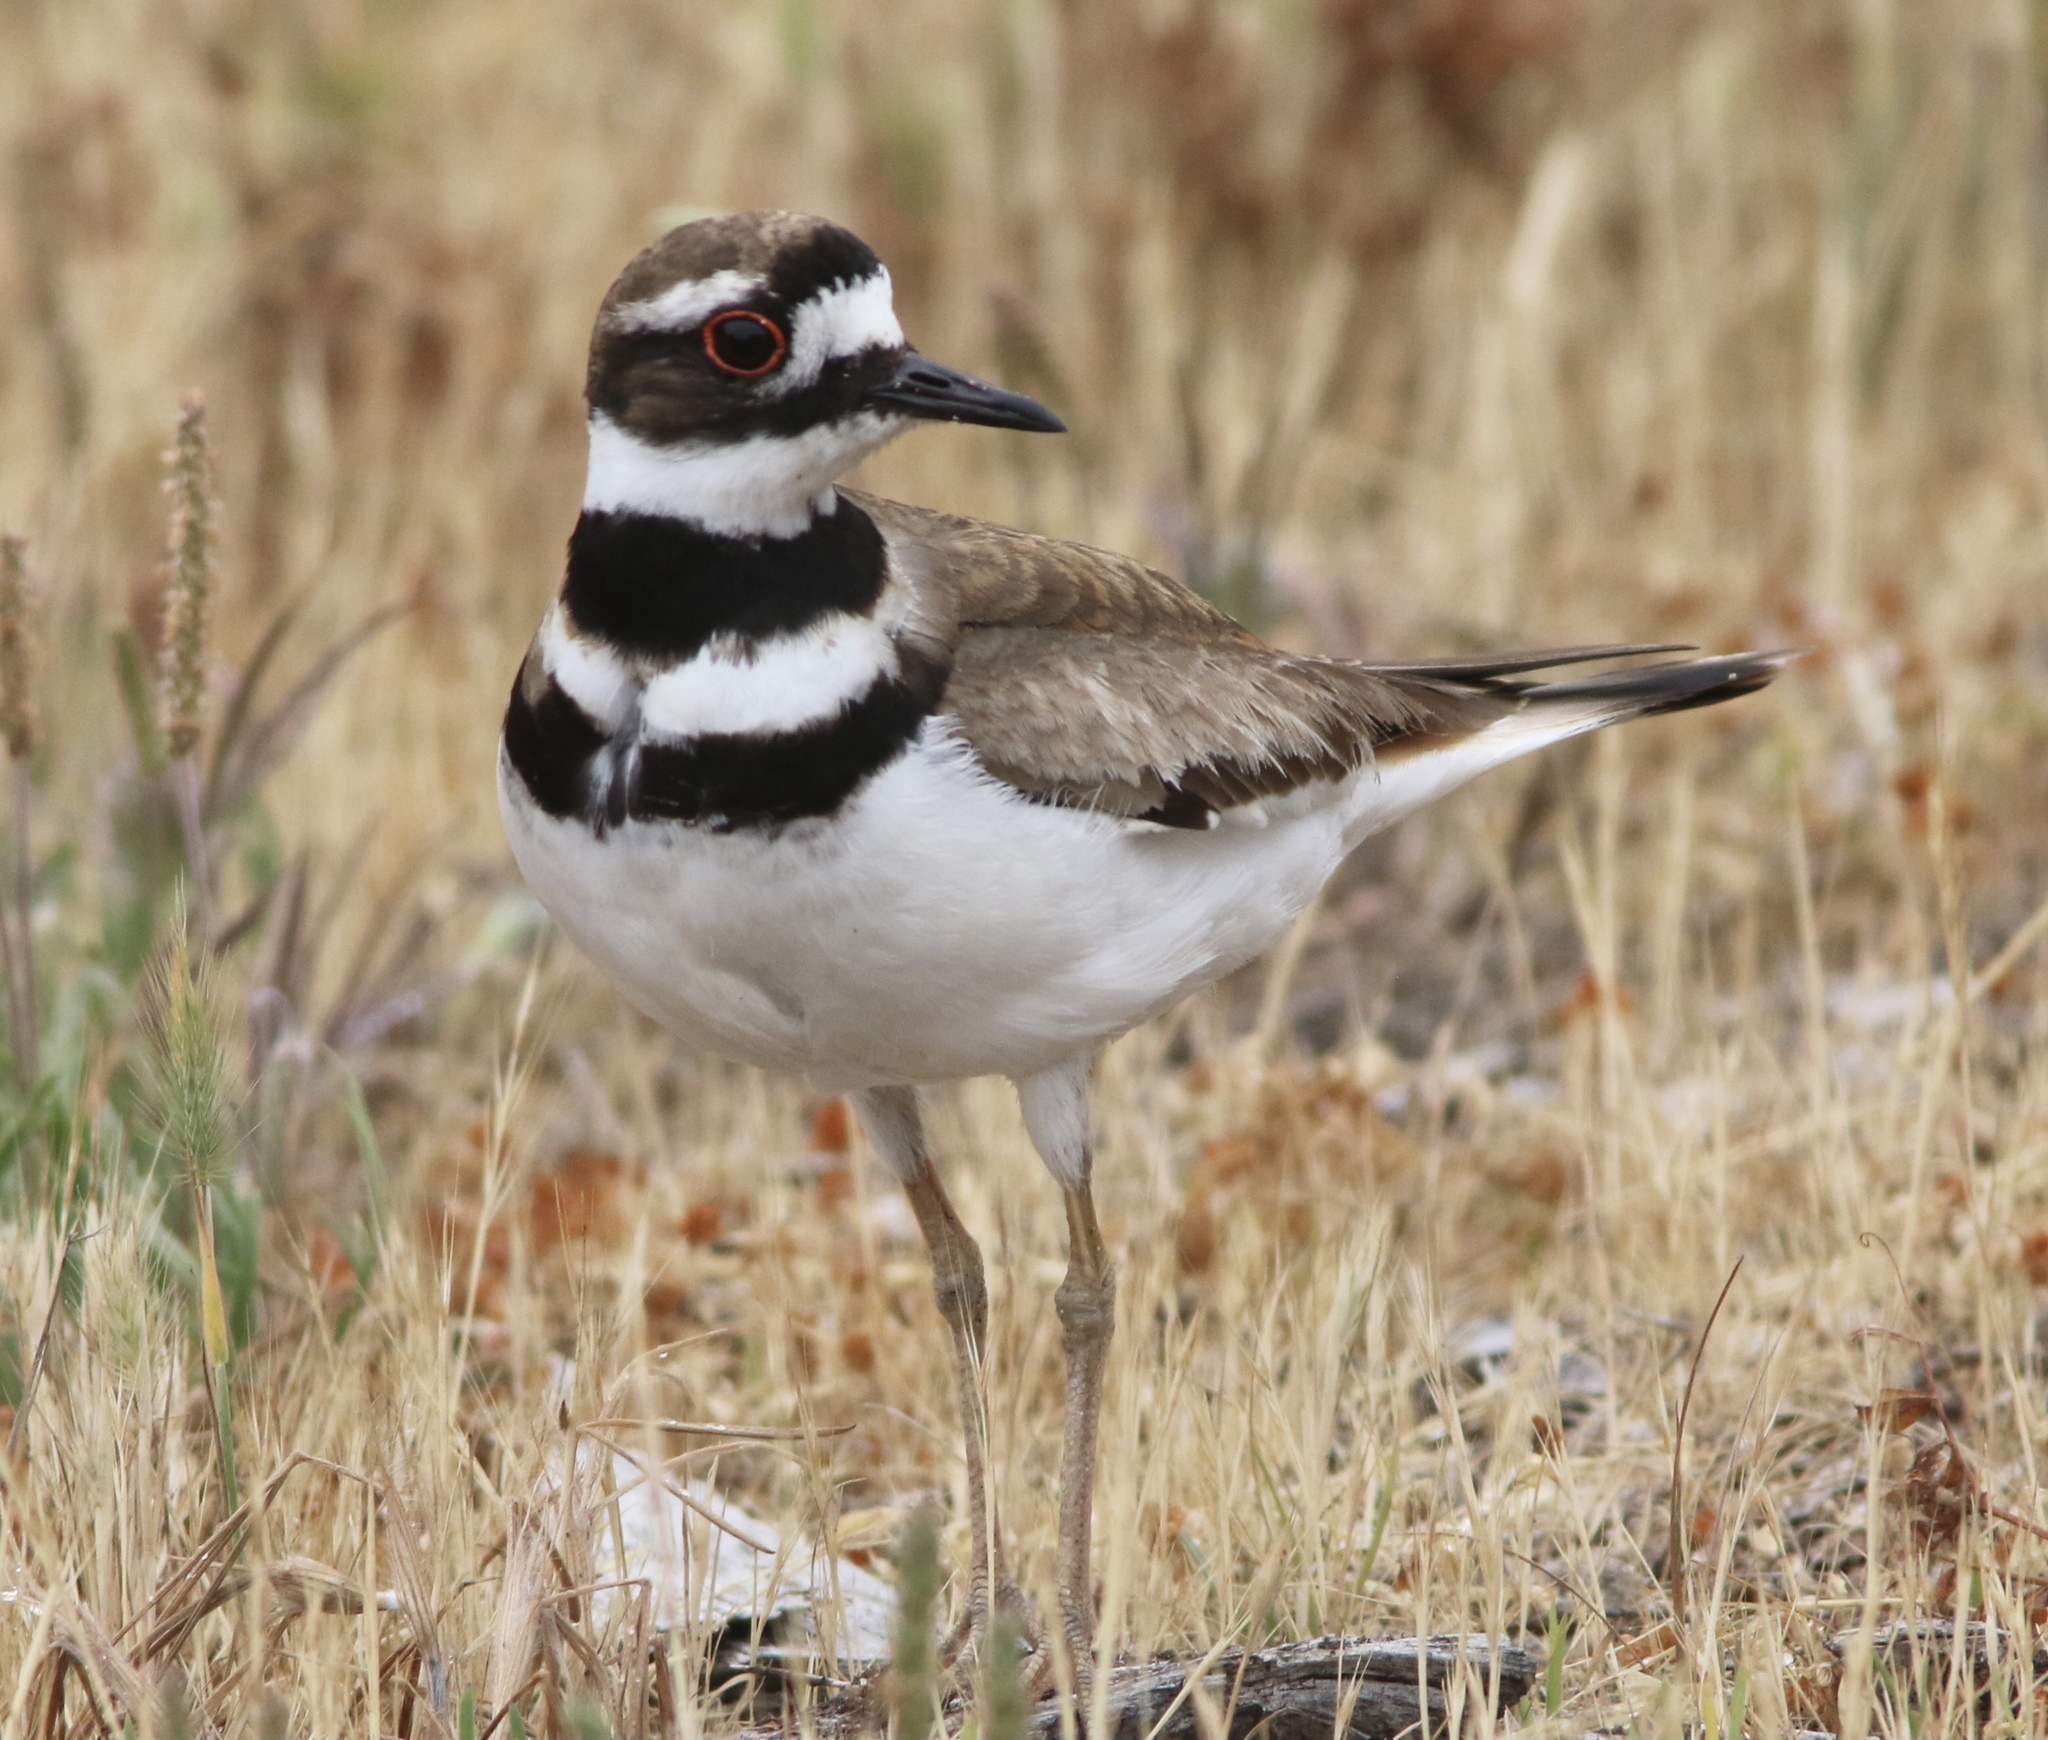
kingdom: Animalia
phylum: Chordata
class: Aves
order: Charadriiformes
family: Charadriidae
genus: Charadrius
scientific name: Charadrius vociferus
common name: Killdeer
